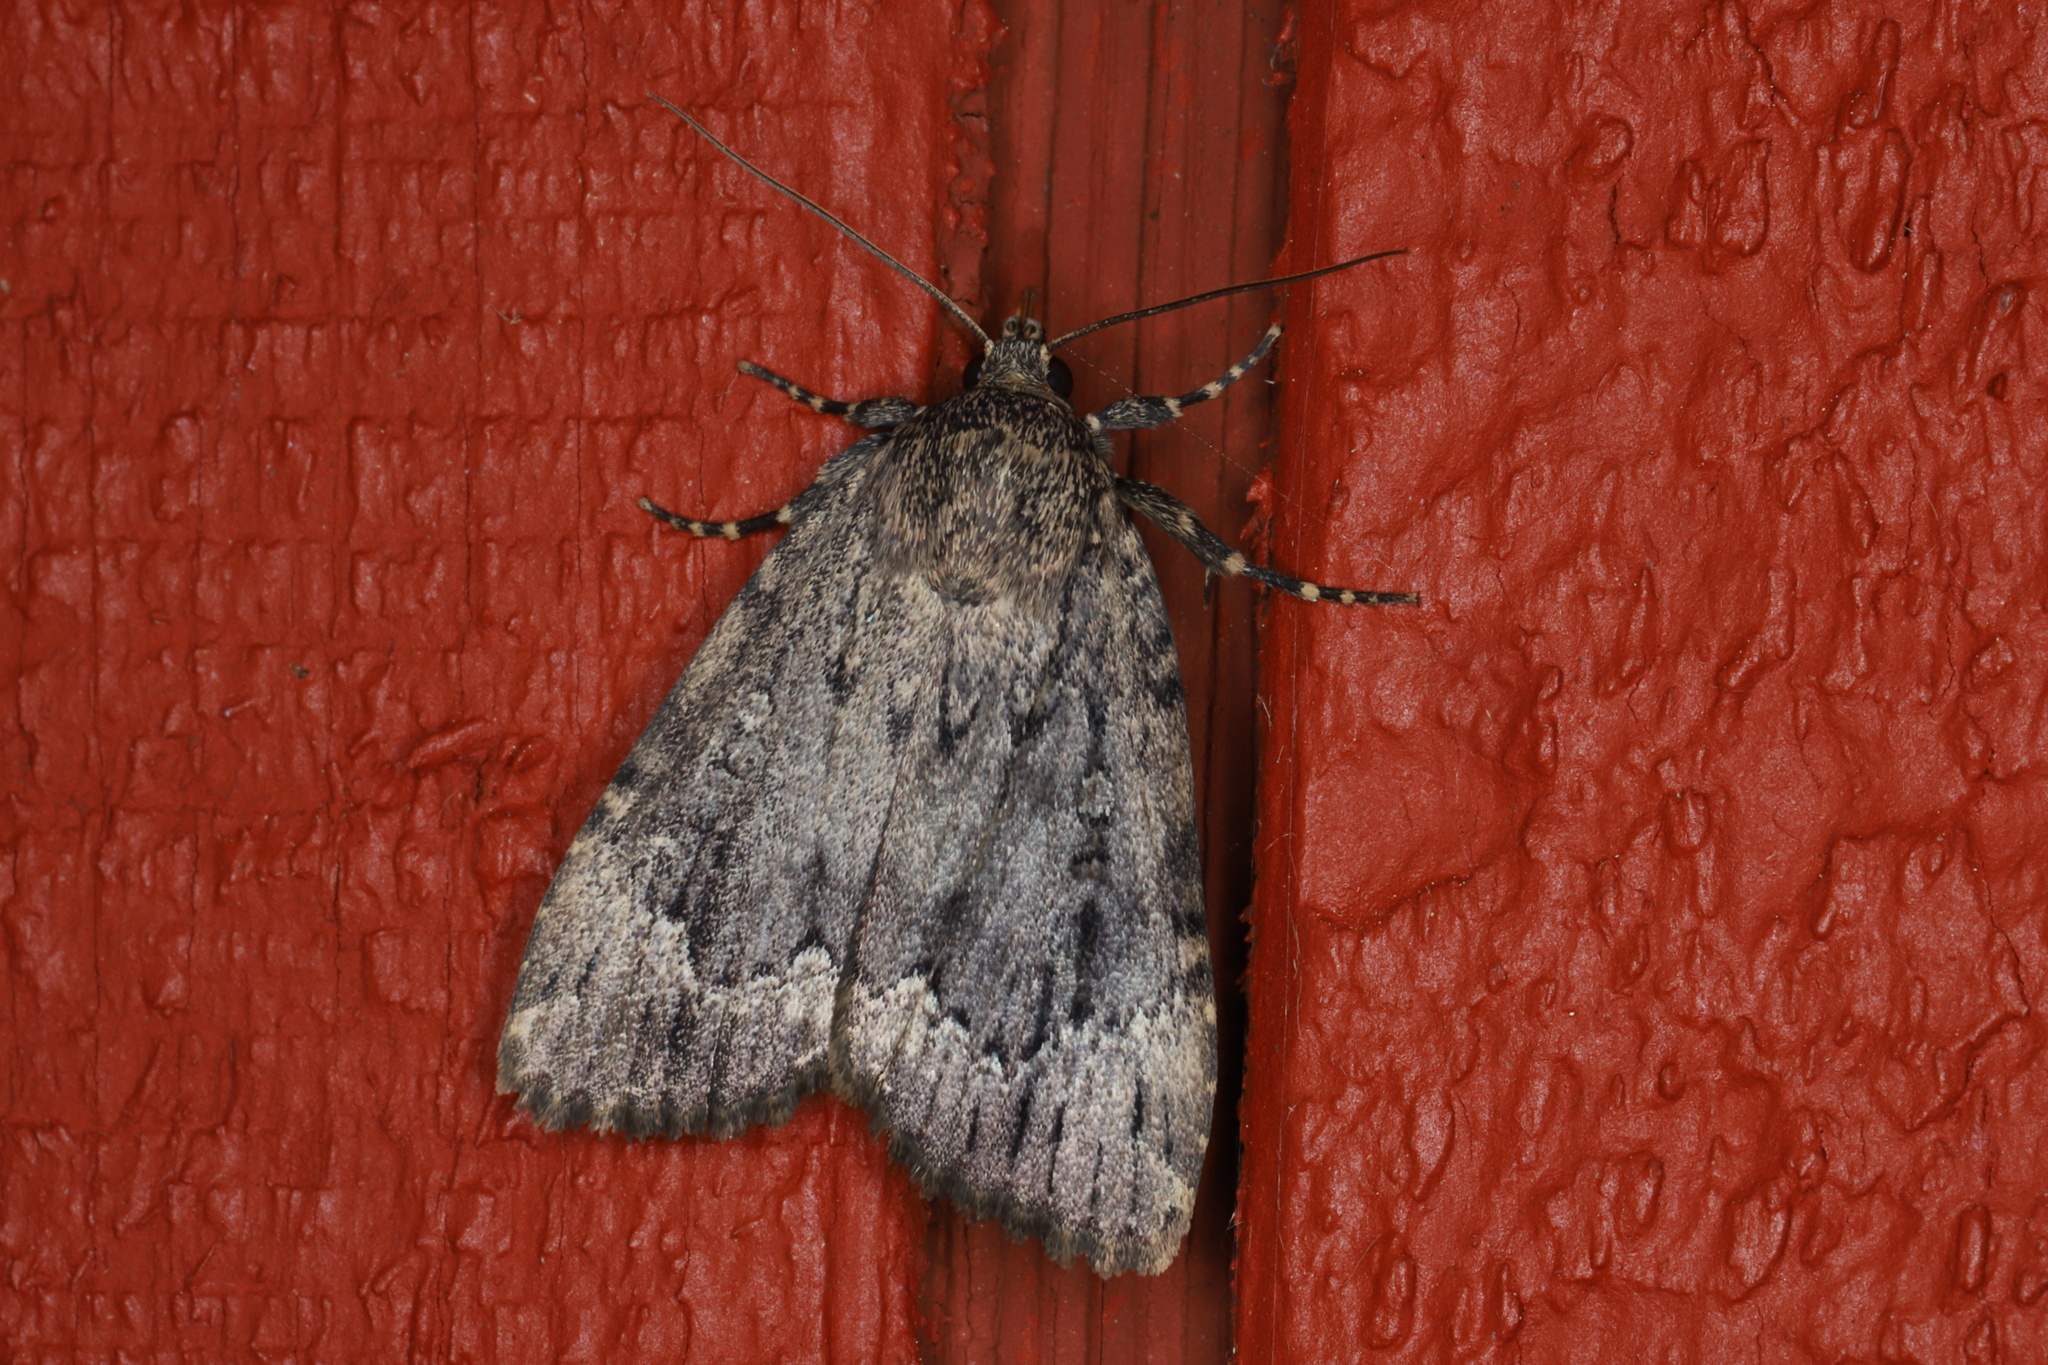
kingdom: Animalia
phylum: Arthropoda
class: Insecta
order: Lepidoptera
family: Noctuidae
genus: Amphipyra
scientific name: Amphipyra pyramidoides
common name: American copper underwing
